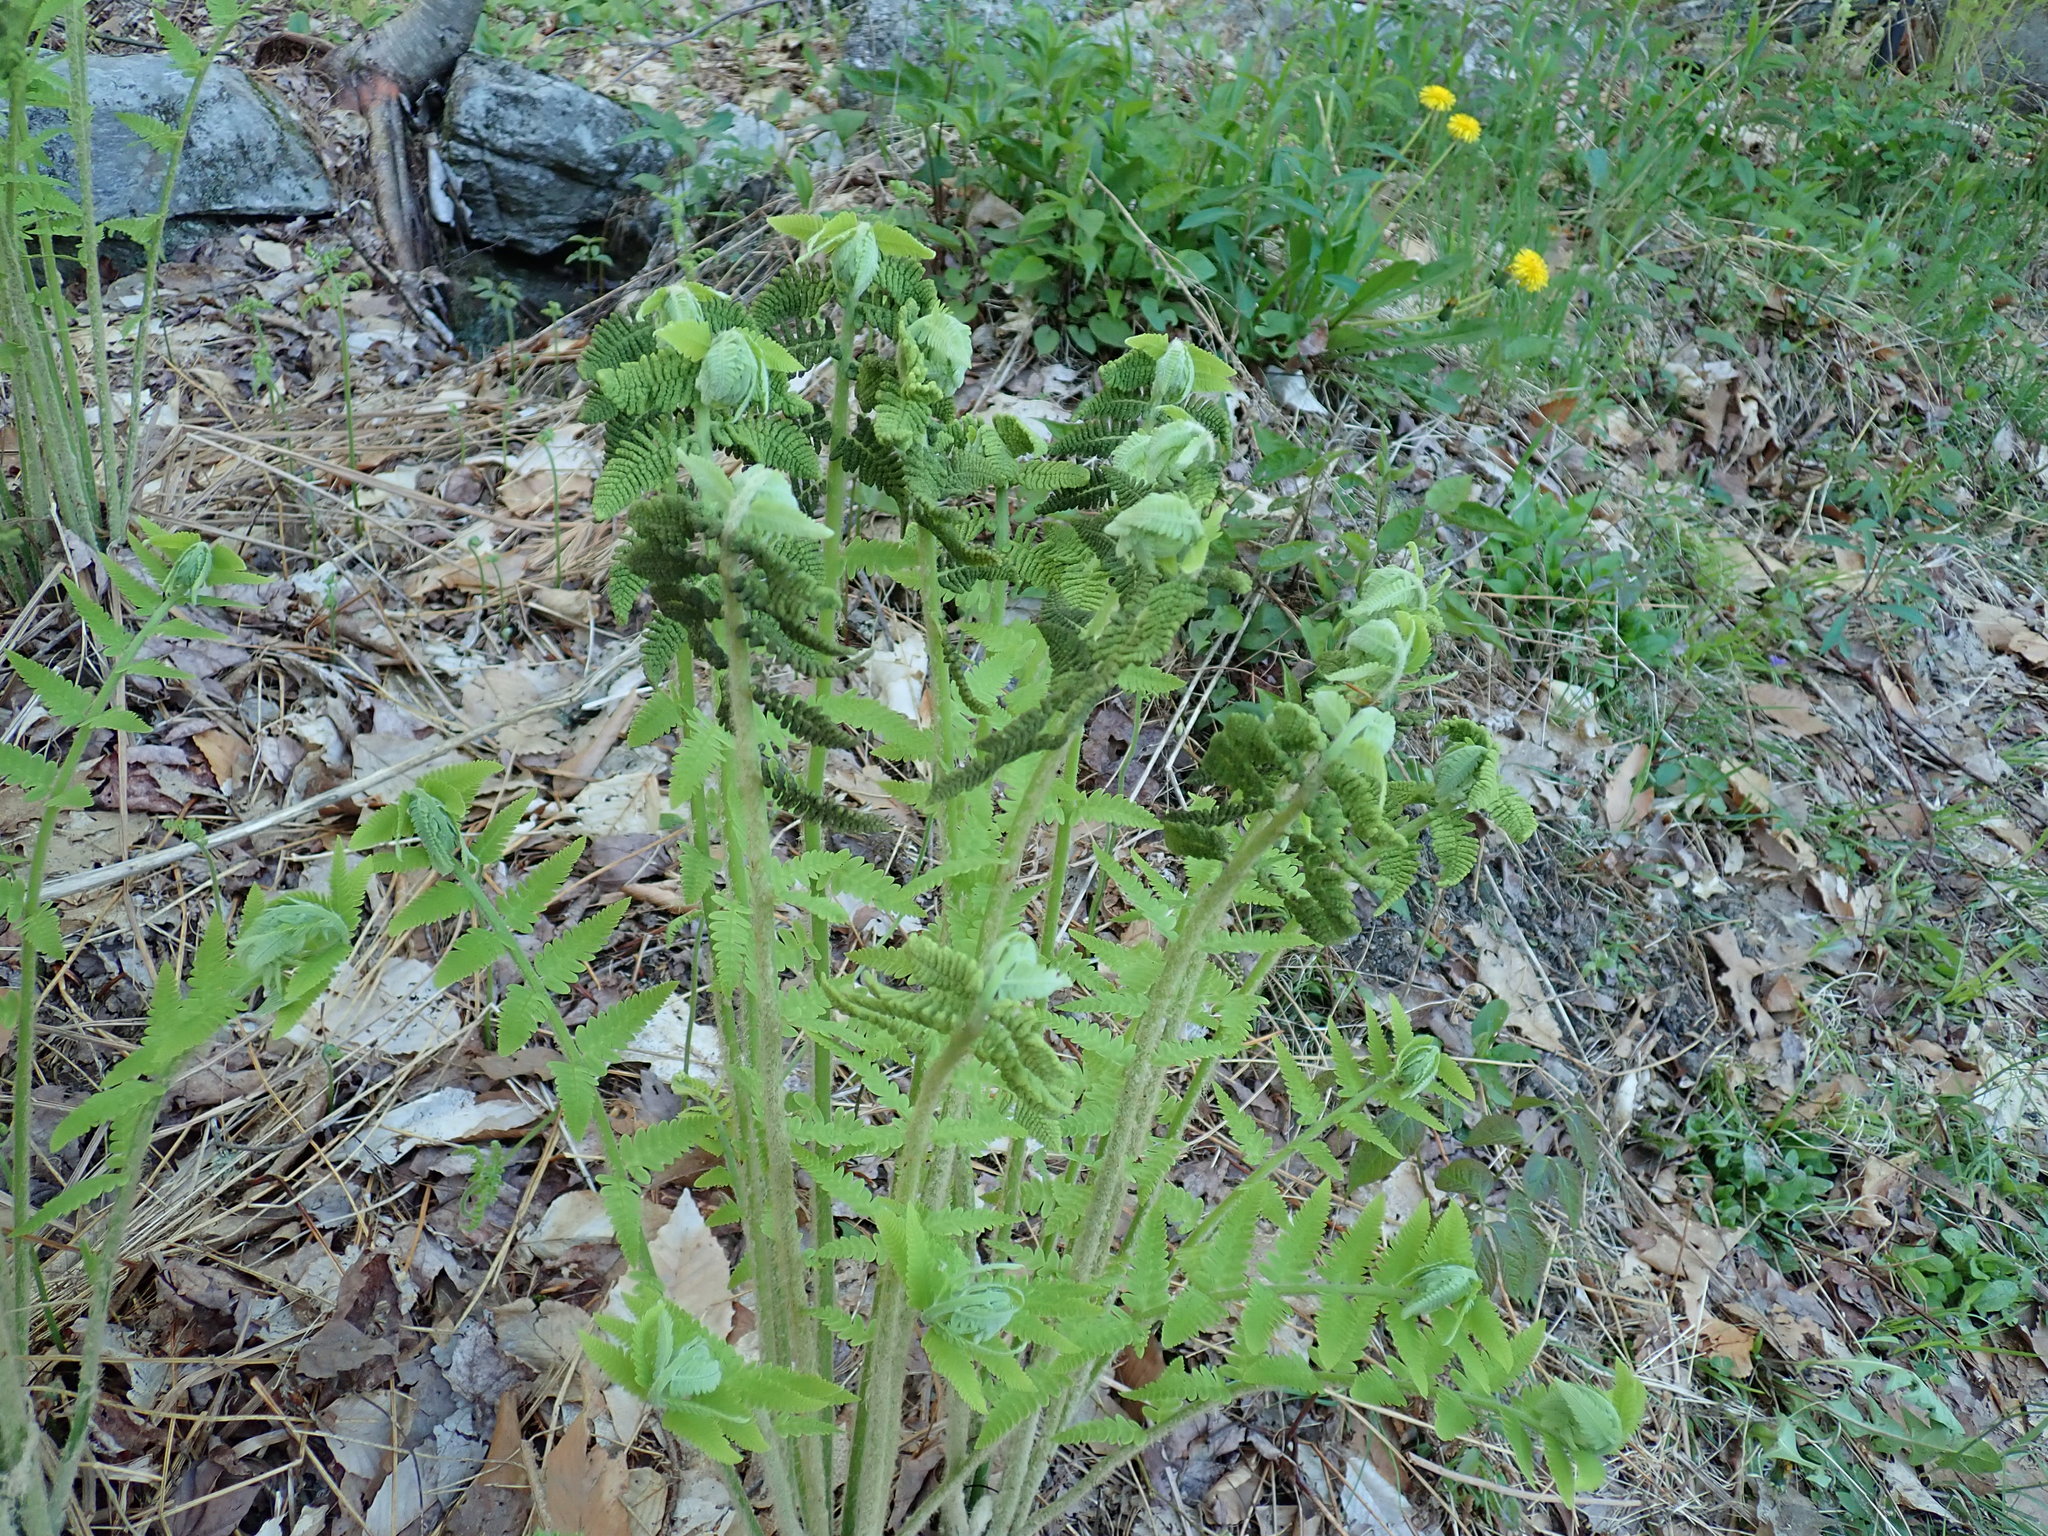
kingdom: Plantae
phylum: Tracheophyta
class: Polypodiopsida
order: Osmundales
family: Osmundaceae
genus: Claytosmunda
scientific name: Claytosmunda claytoniana
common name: Clayton's fern
